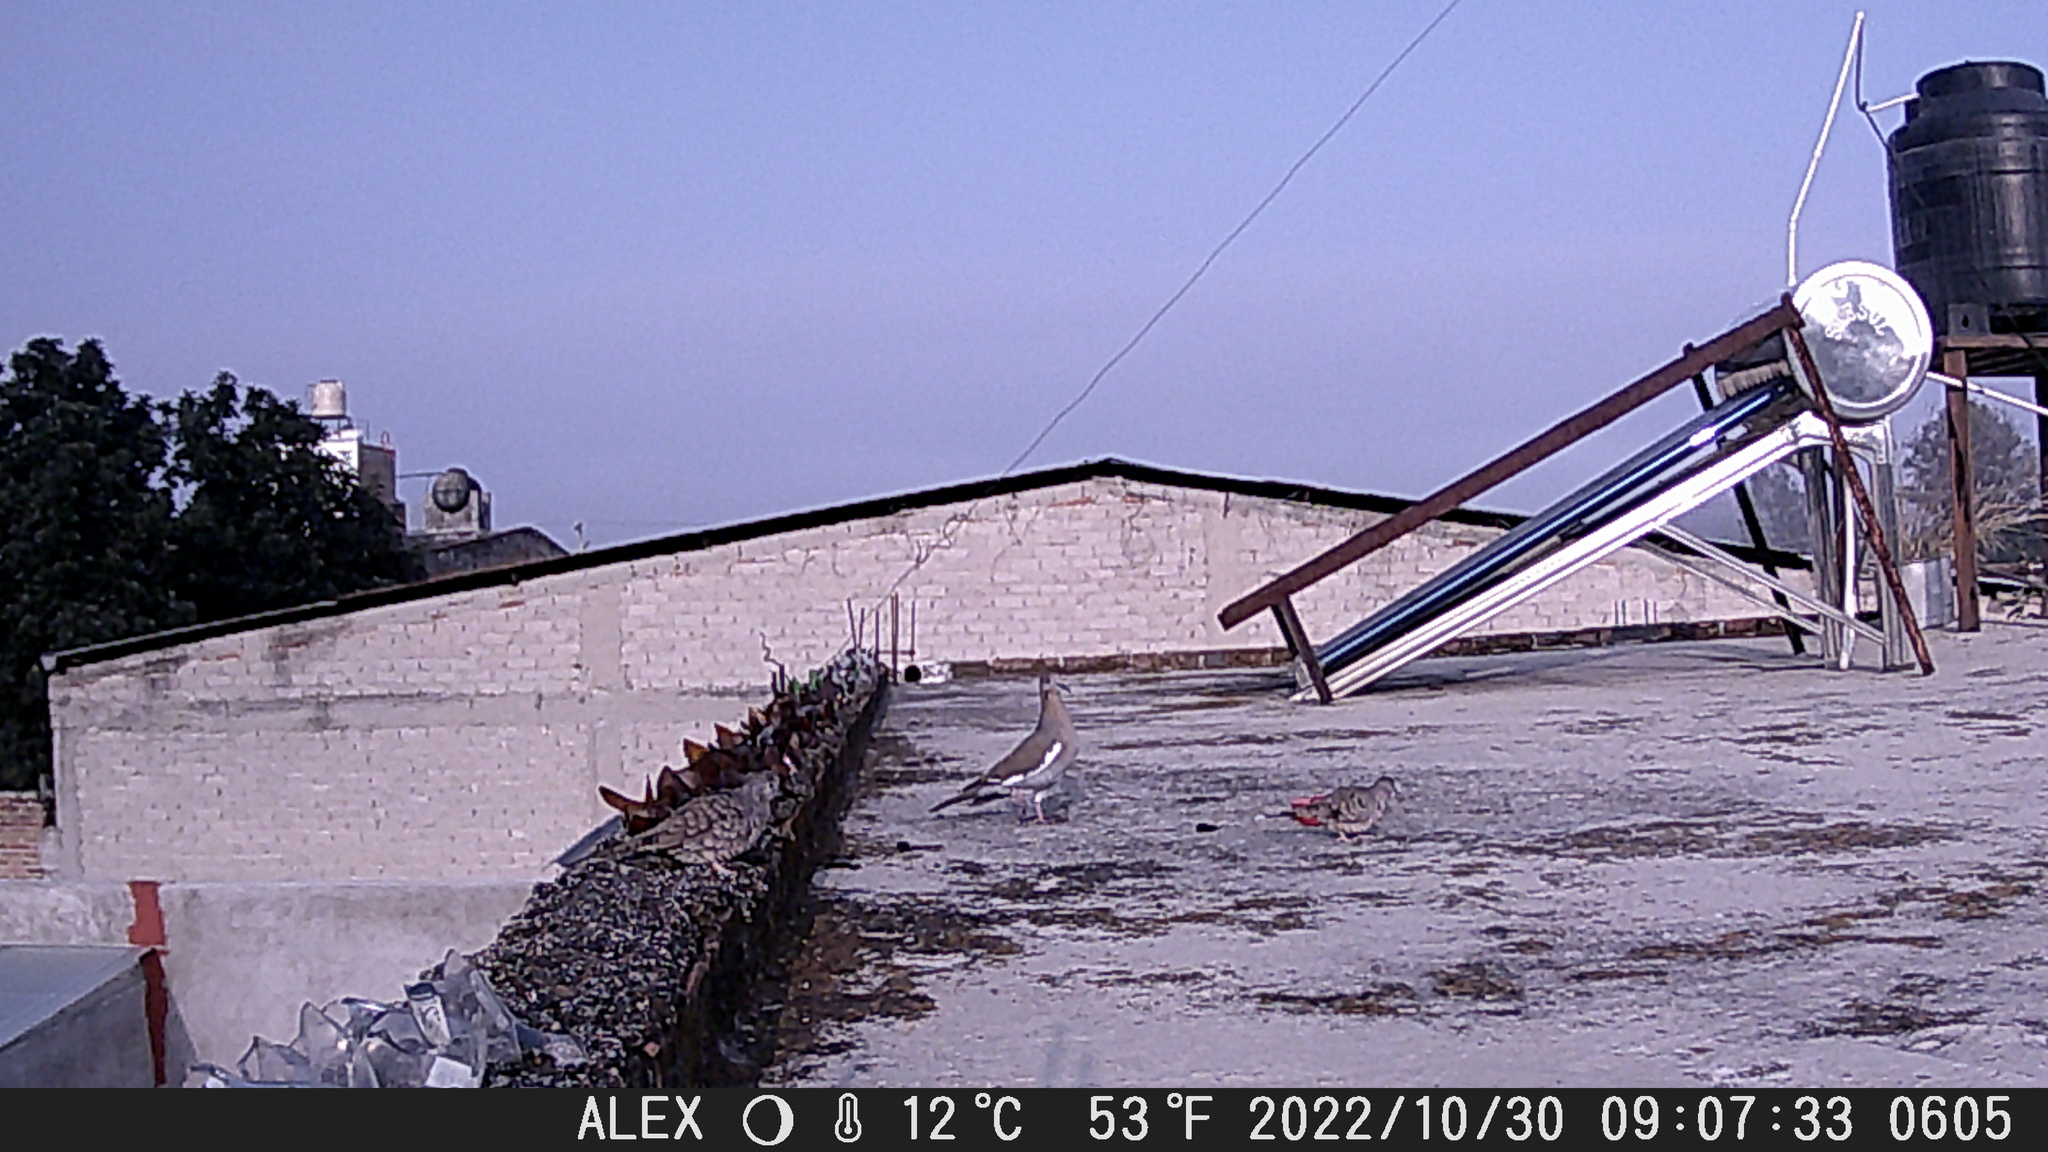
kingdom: Animalia
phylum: Chordata
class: Aves
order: Columbiformes
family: Columbidae
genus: Zenaida
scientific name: Zenaida asiatica
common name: White-winged dove
